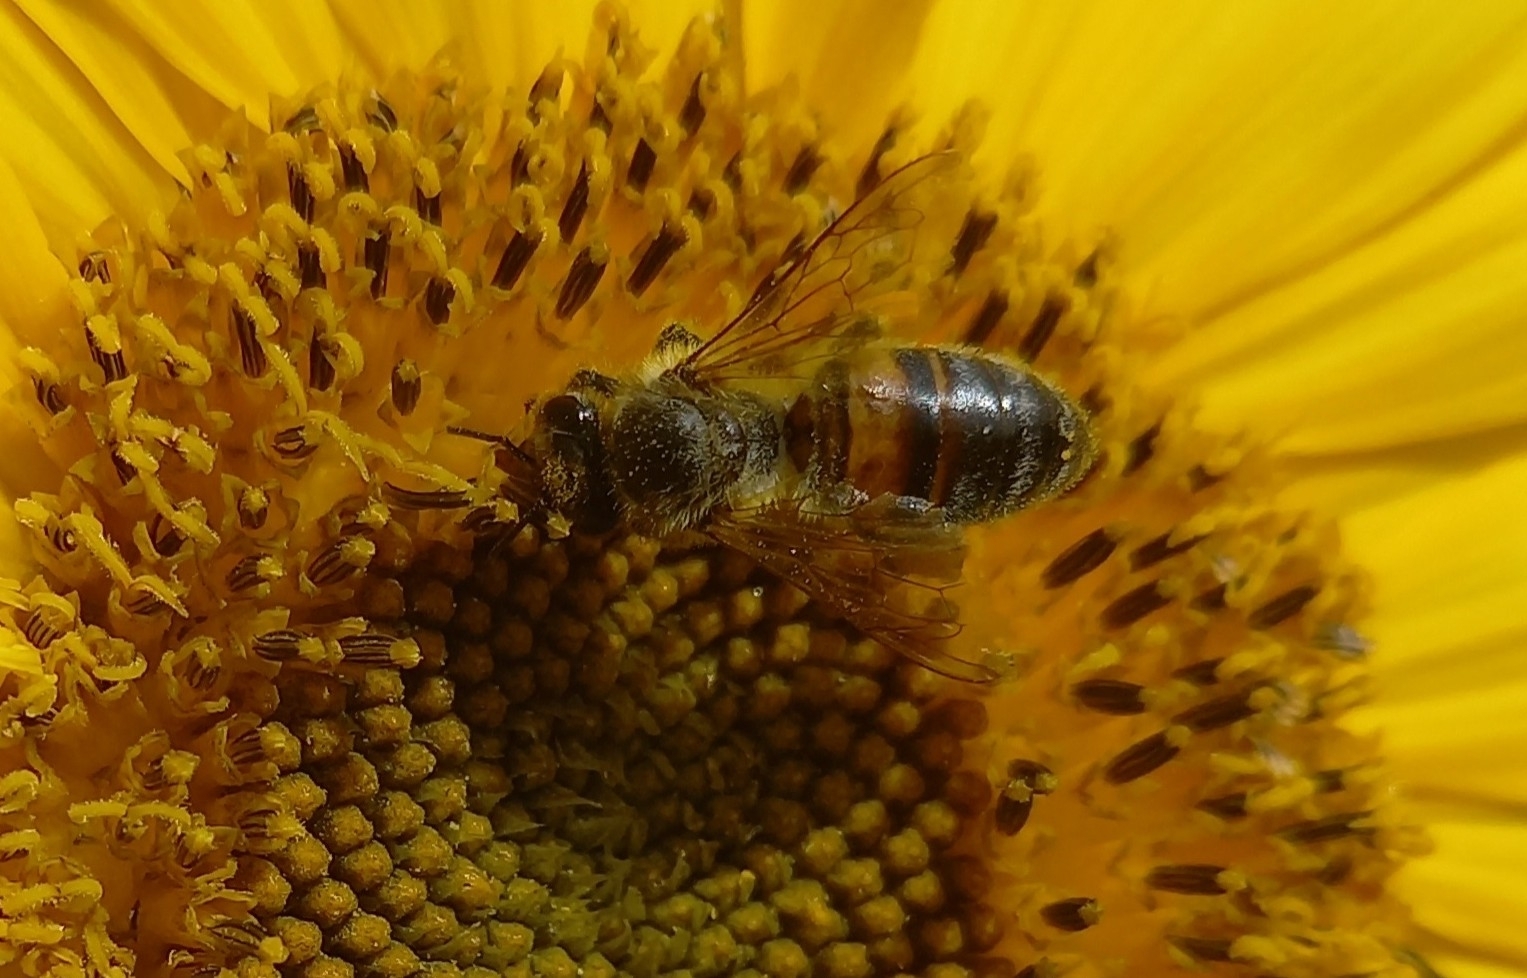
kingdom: Animalia
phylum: Arthropoda
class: Insecta
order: Hymenoptera
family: Apidae
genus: Apis
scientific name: Apis mellifera
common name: Honey bee
